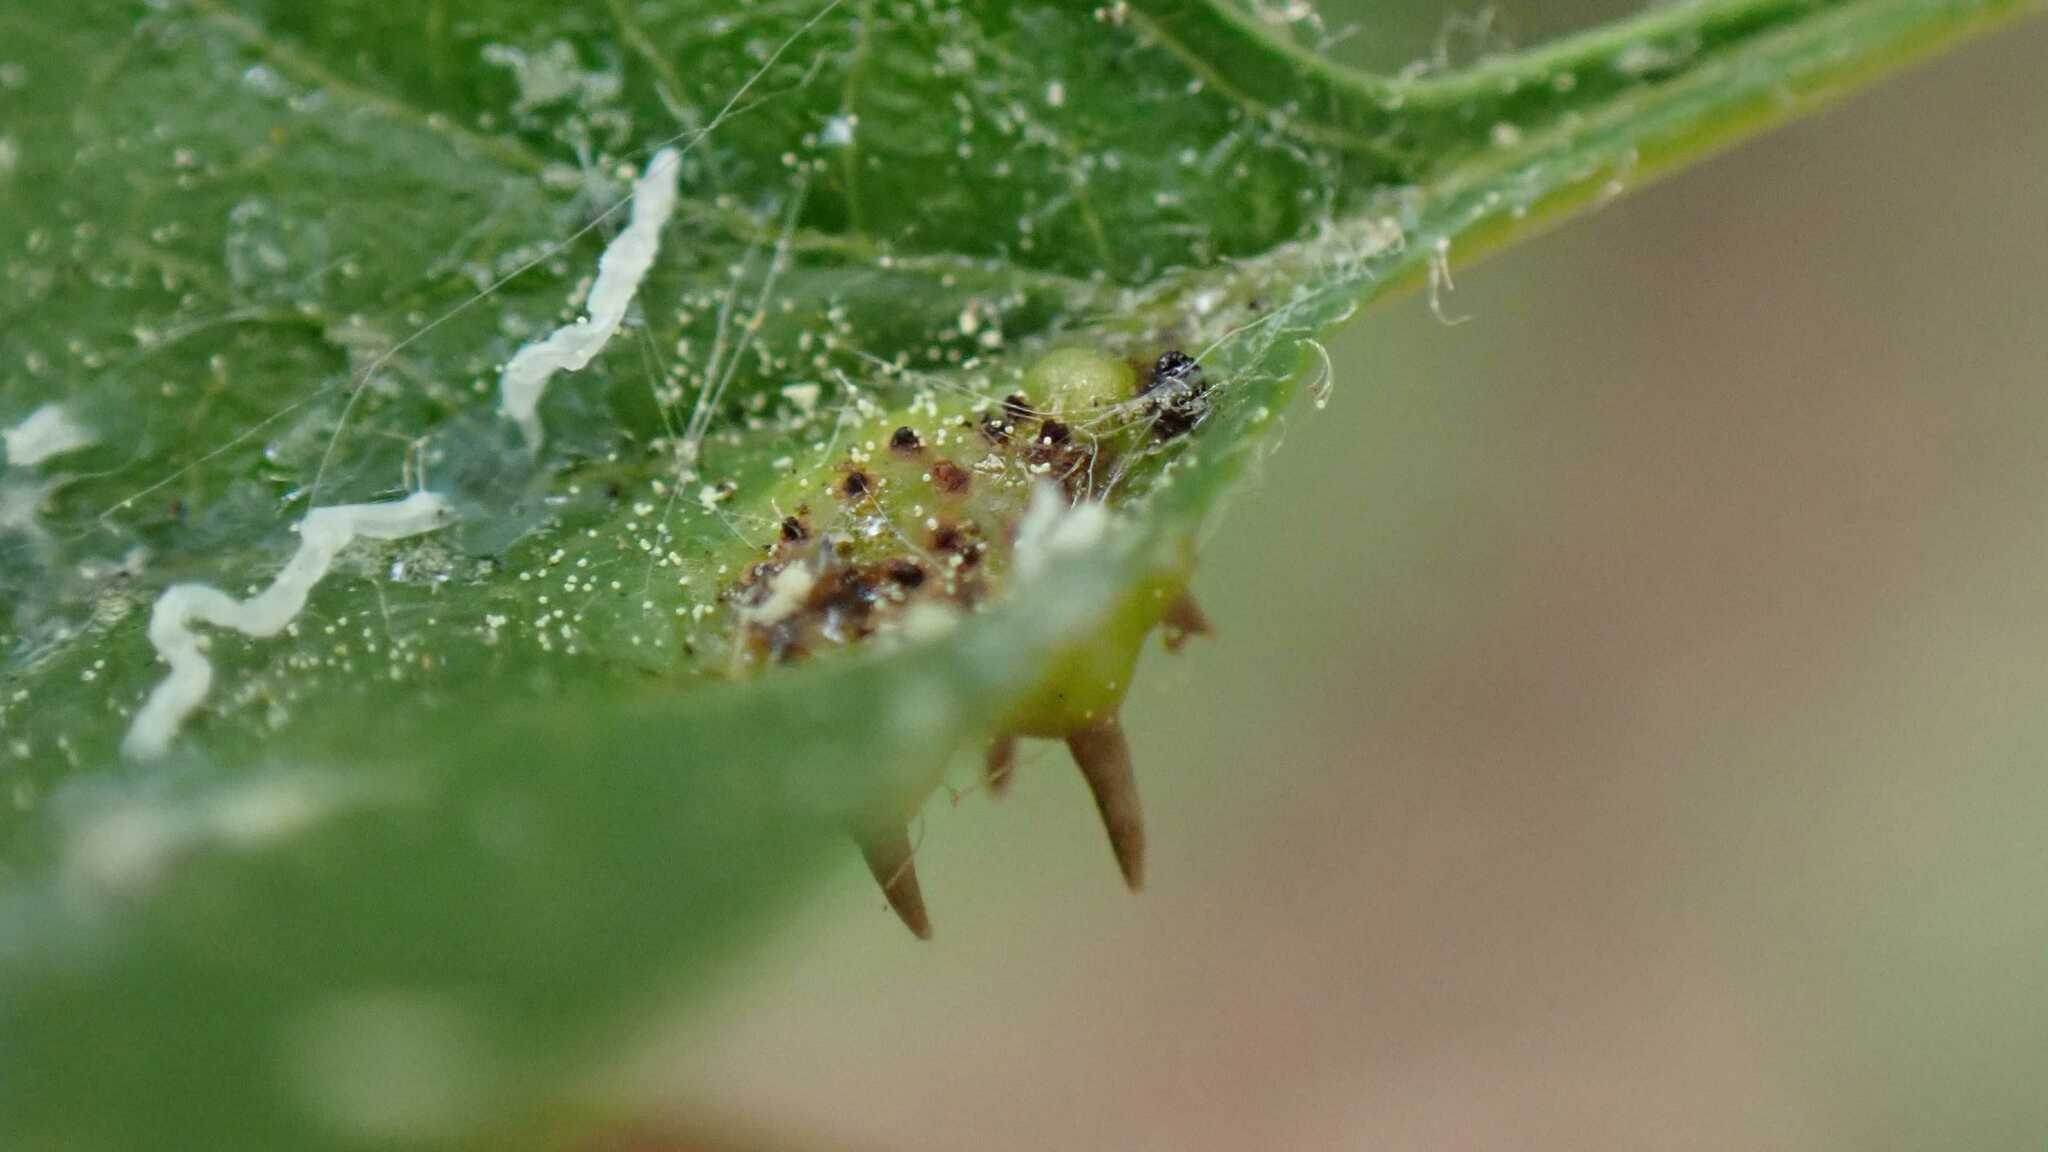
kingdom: Fungi
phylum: Basidiomycota
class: Pucciniomycetes
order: Pucciniales
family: Gymnosporangiaceae
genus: Gymnosporangium
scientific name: Gymnosporangium clavariiforme
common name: Tongues of fire
